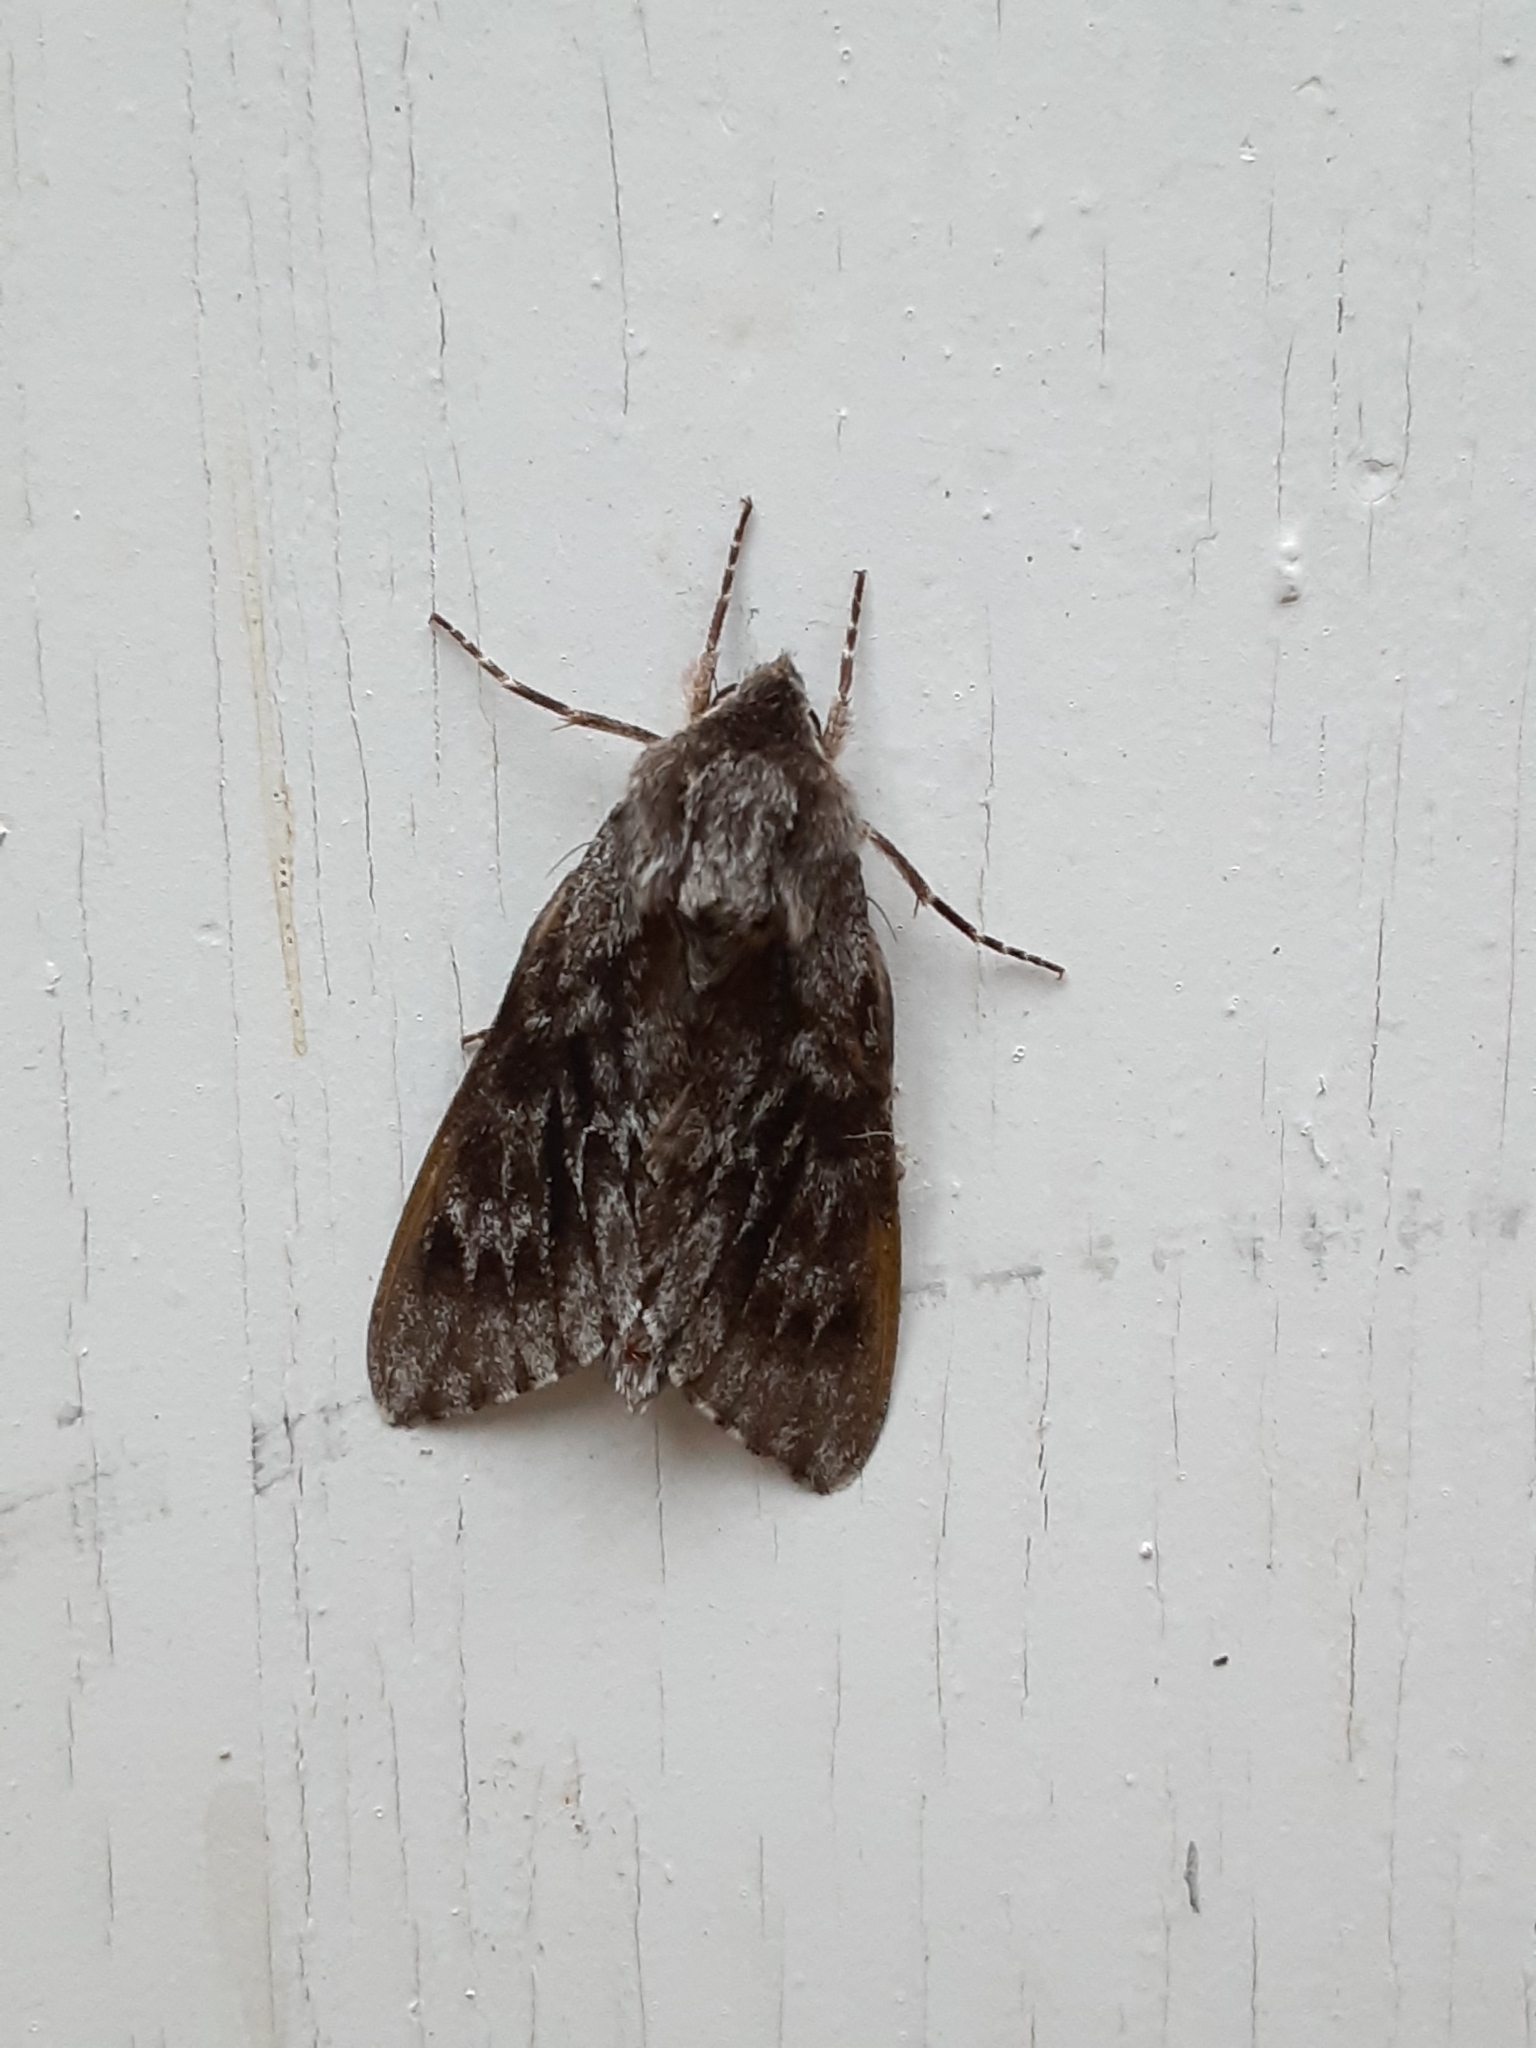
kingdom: Animalia
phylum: Arthropoda
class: Insecta
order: Lepidoptera
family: Sphingidae
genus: Lapara
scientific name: Lapara bombycoides
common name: Northern pine sphinx
